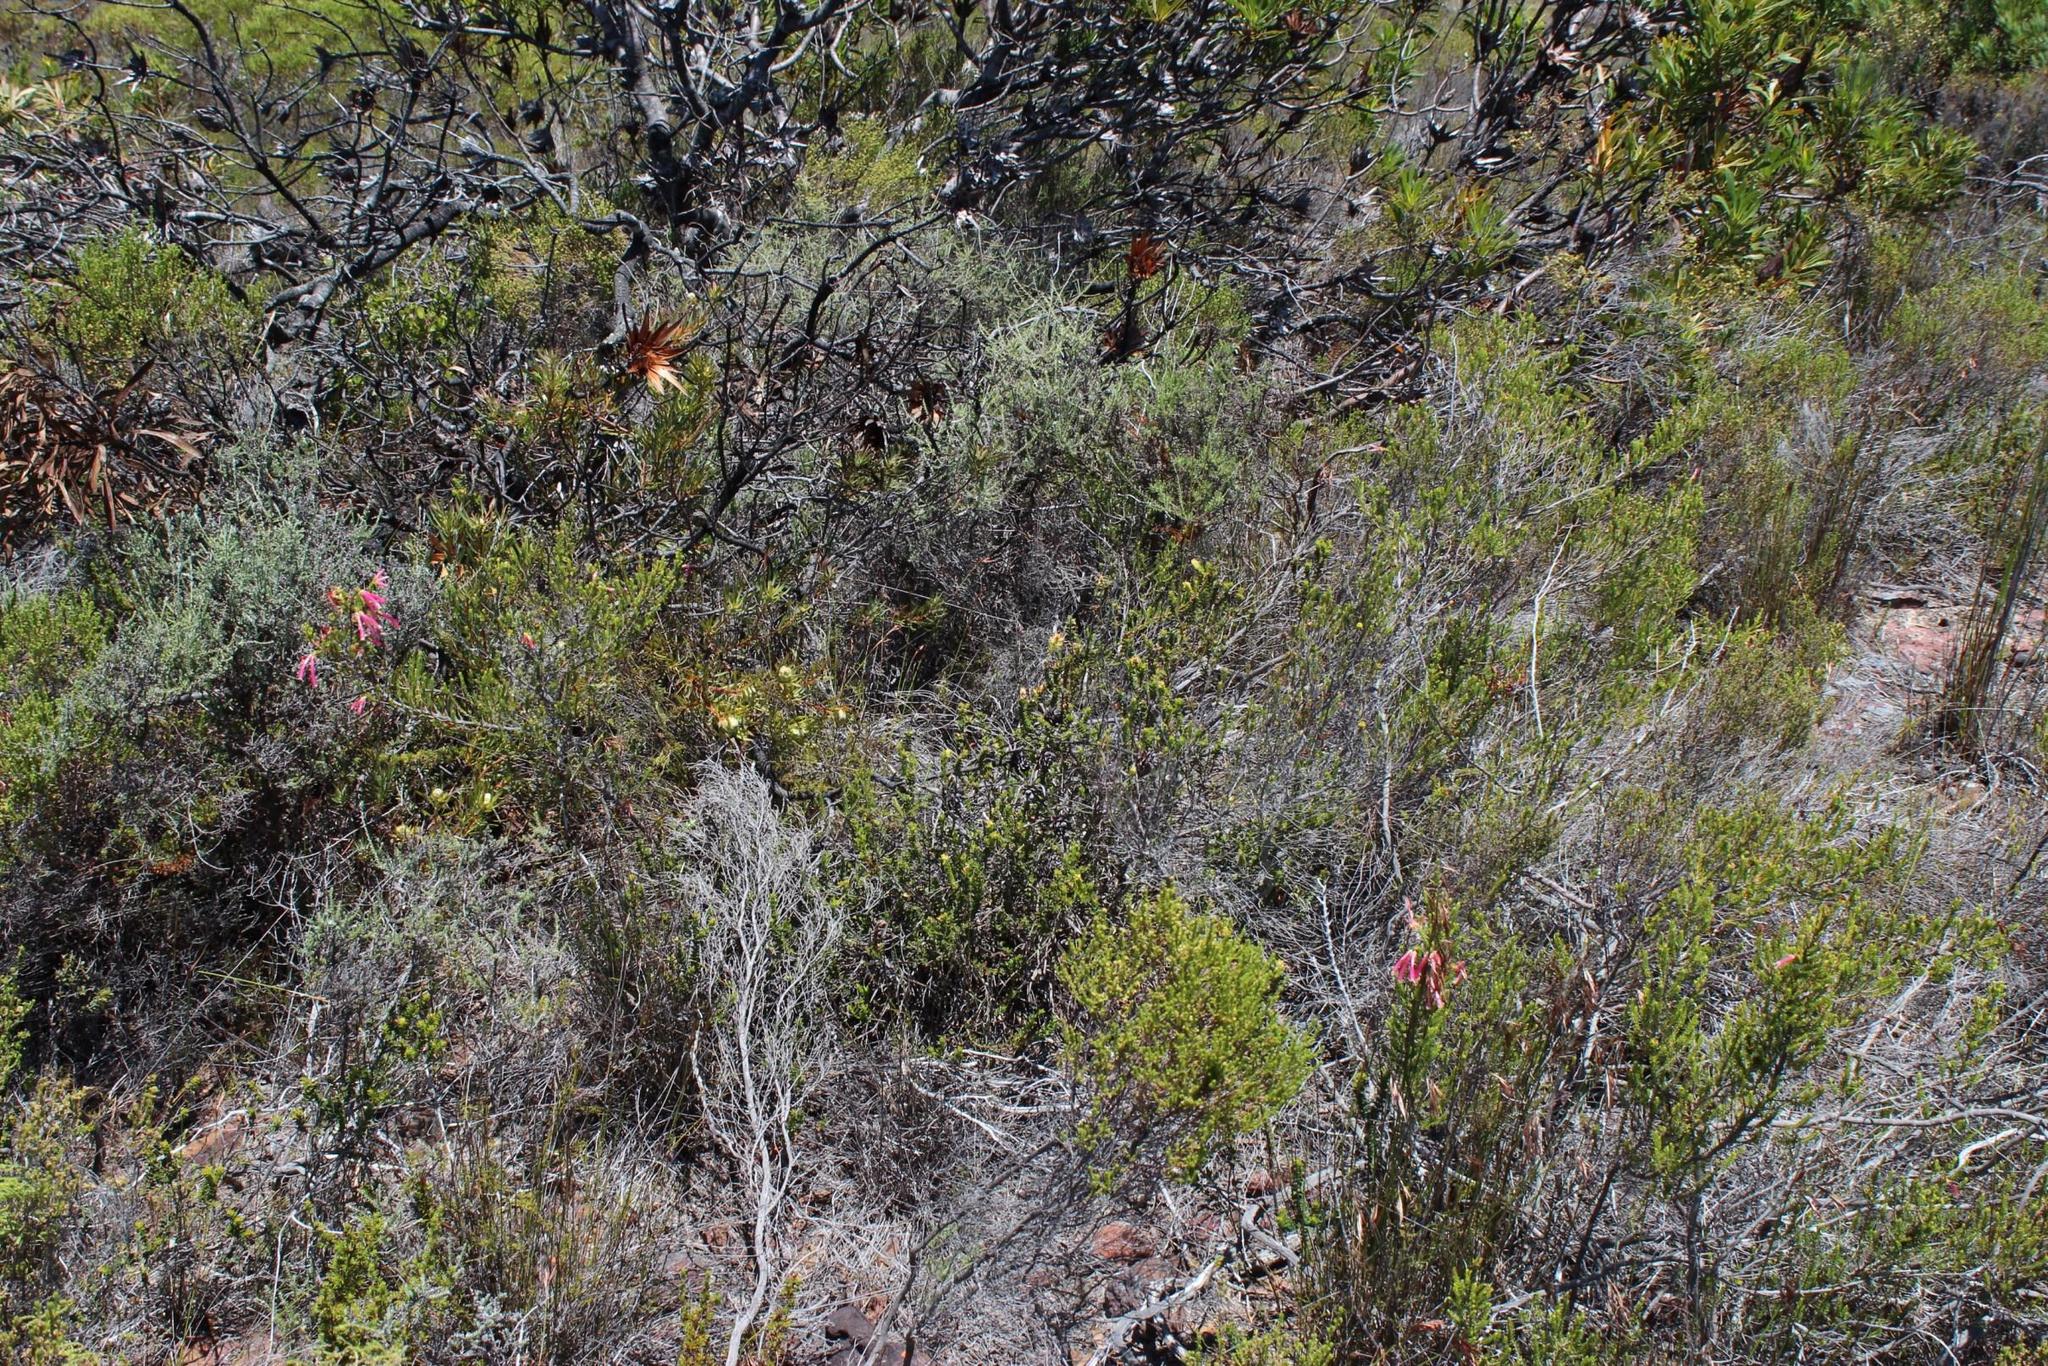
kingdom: Plantae
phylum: Tracheophyta
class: Magnoliopsida
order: Ericales
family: Ericaceae
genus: Erica
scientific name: Erica discolor
